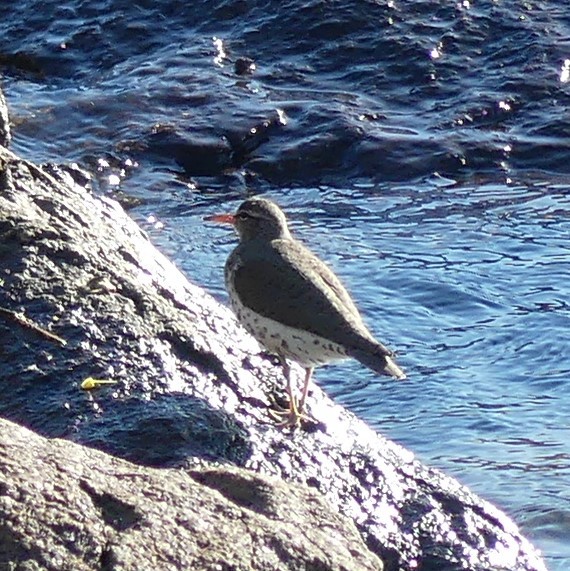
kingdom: Animalia
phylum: Chordata
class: Aves
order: Charadriiformes
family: Scolopacidae
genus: Actitis
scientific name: Actitis macularius
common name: Spotted sandpiper
